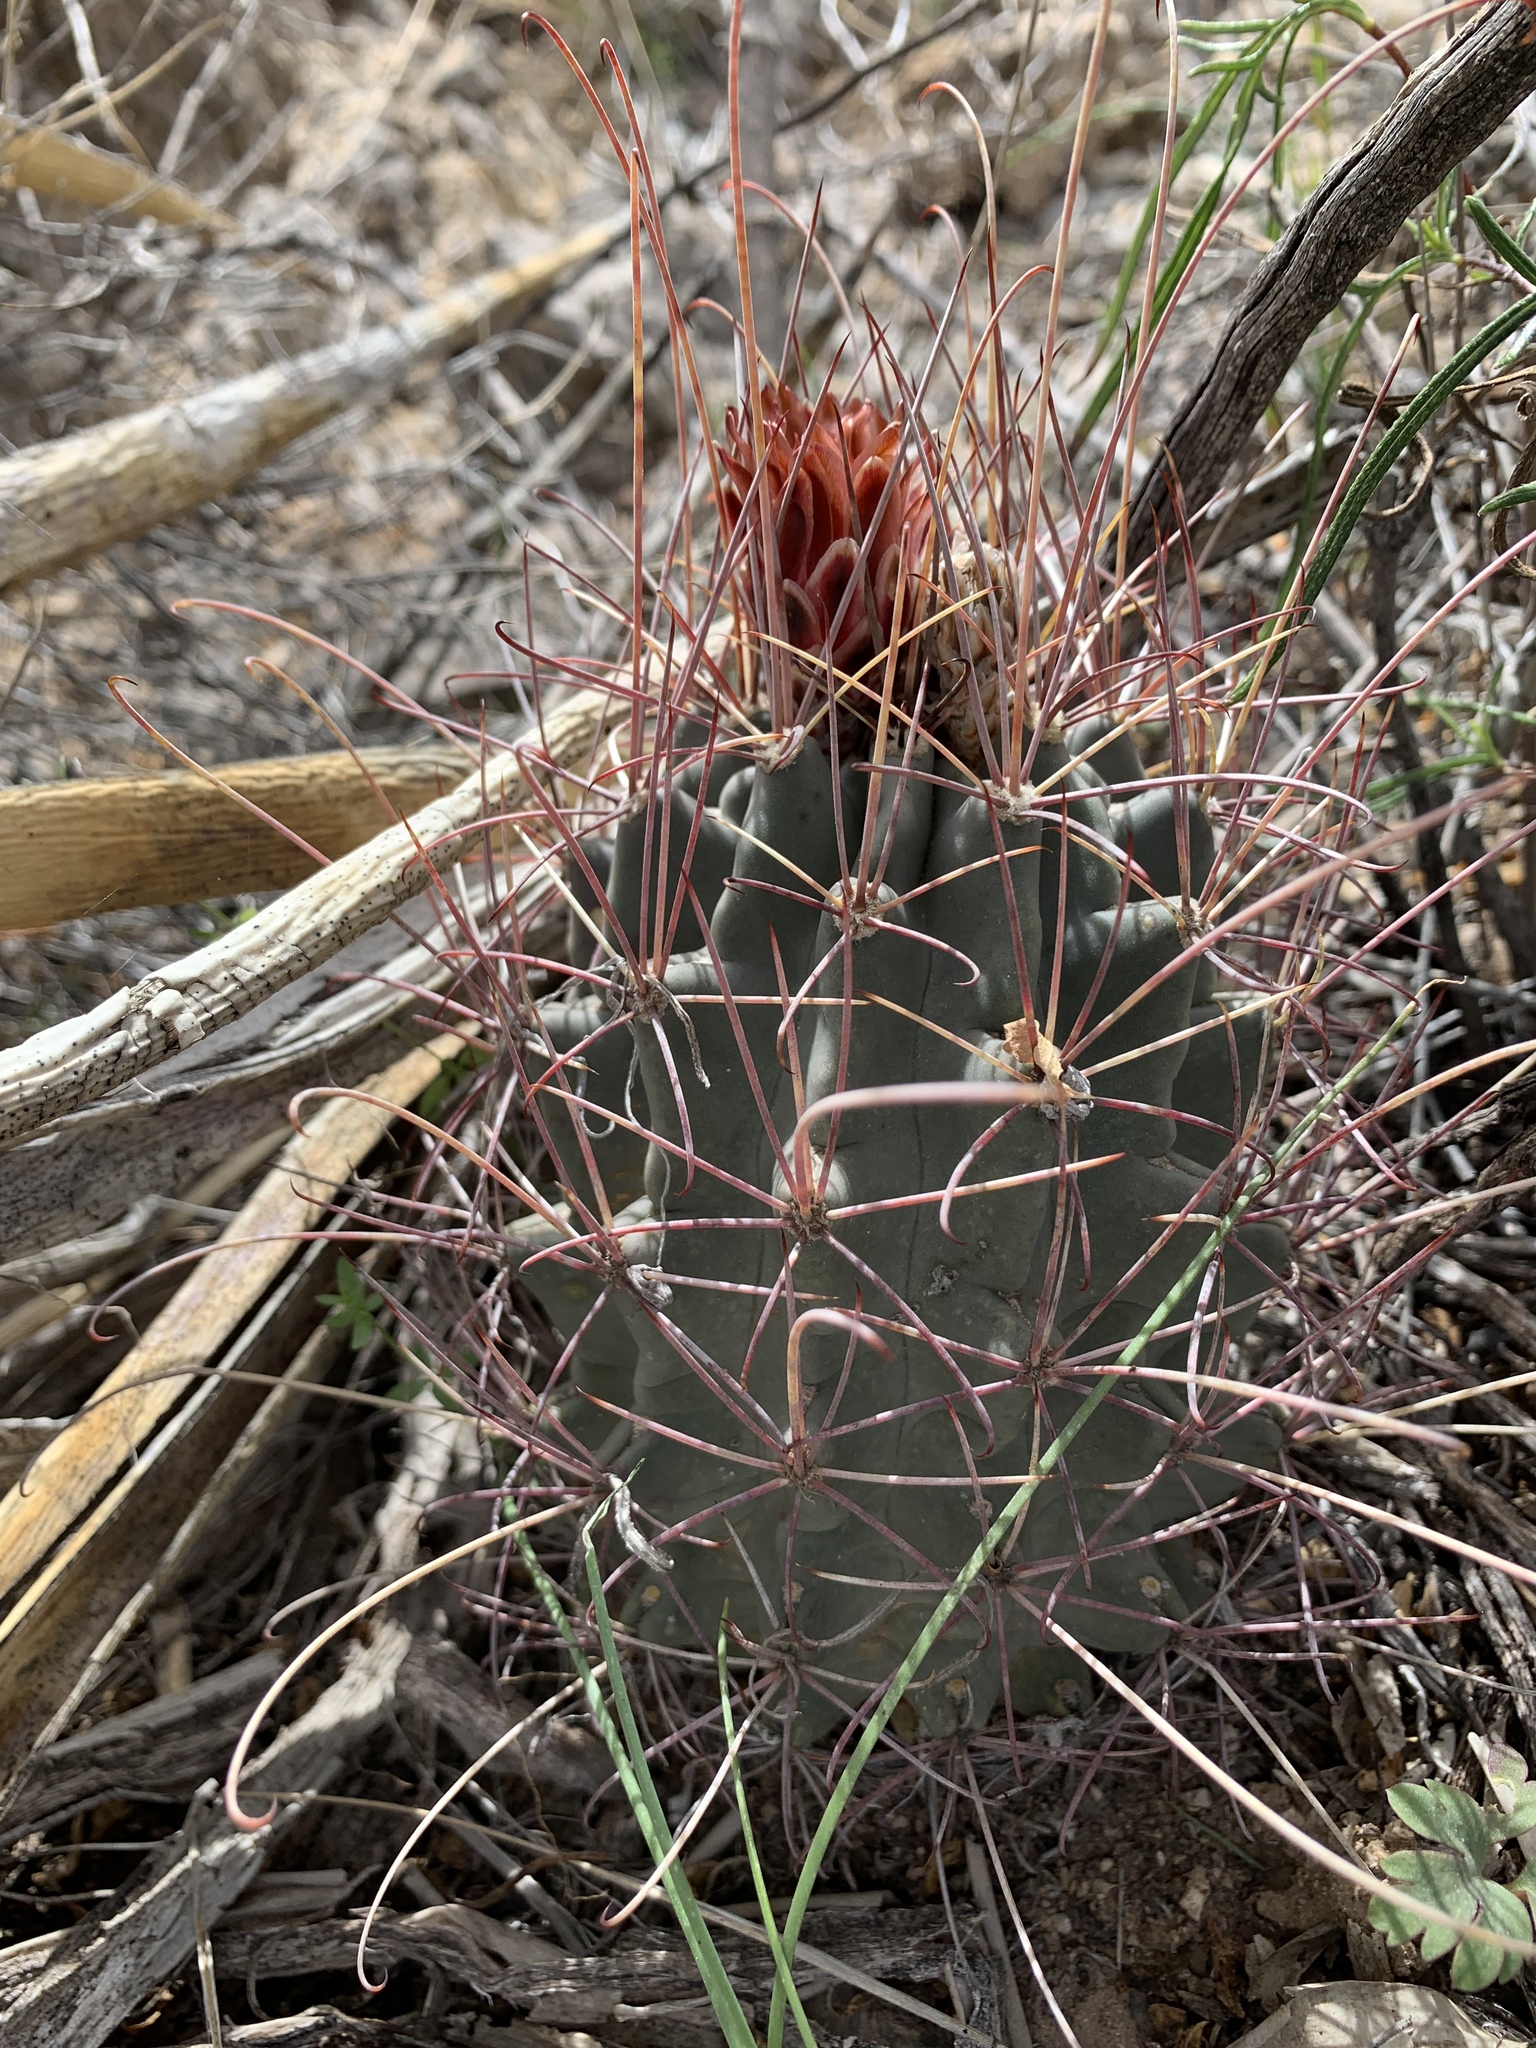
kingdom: Plantae
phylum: Tracheophyta
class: Magnoliopsida
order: Caryophyllales
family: Cactaceae
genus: Ferocactus
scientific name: Ferocactus uncinatus
